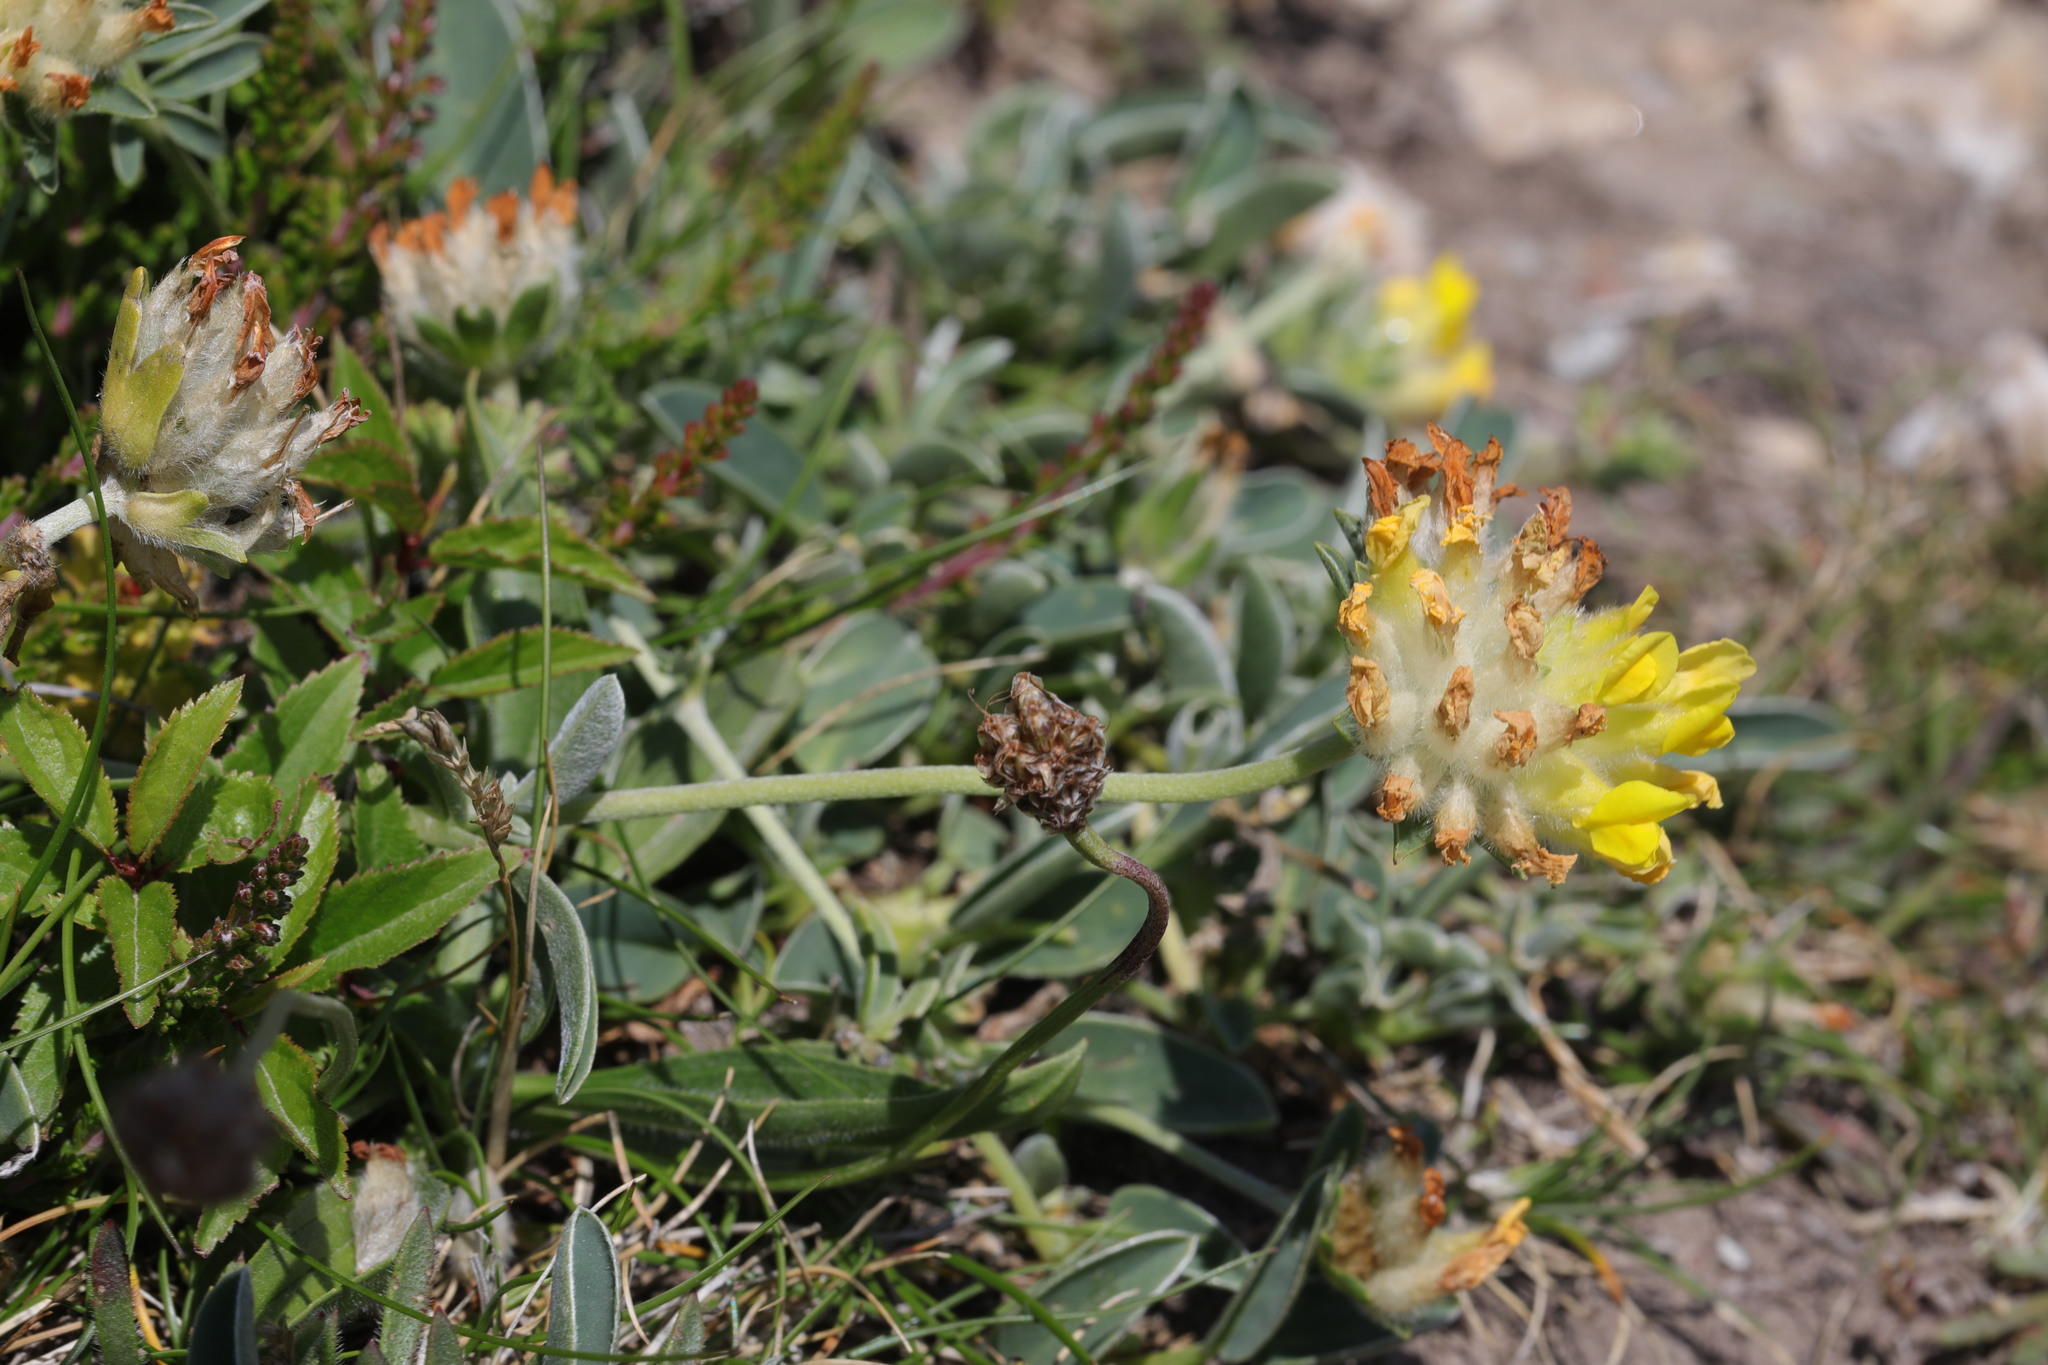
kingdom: Plantae
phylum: Tracheophyta
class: Magnoliopsida
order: Fabales
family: Fabaceae
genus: Anthyllis
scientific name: Anthyllis vulneraria
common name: Kidney vetch
